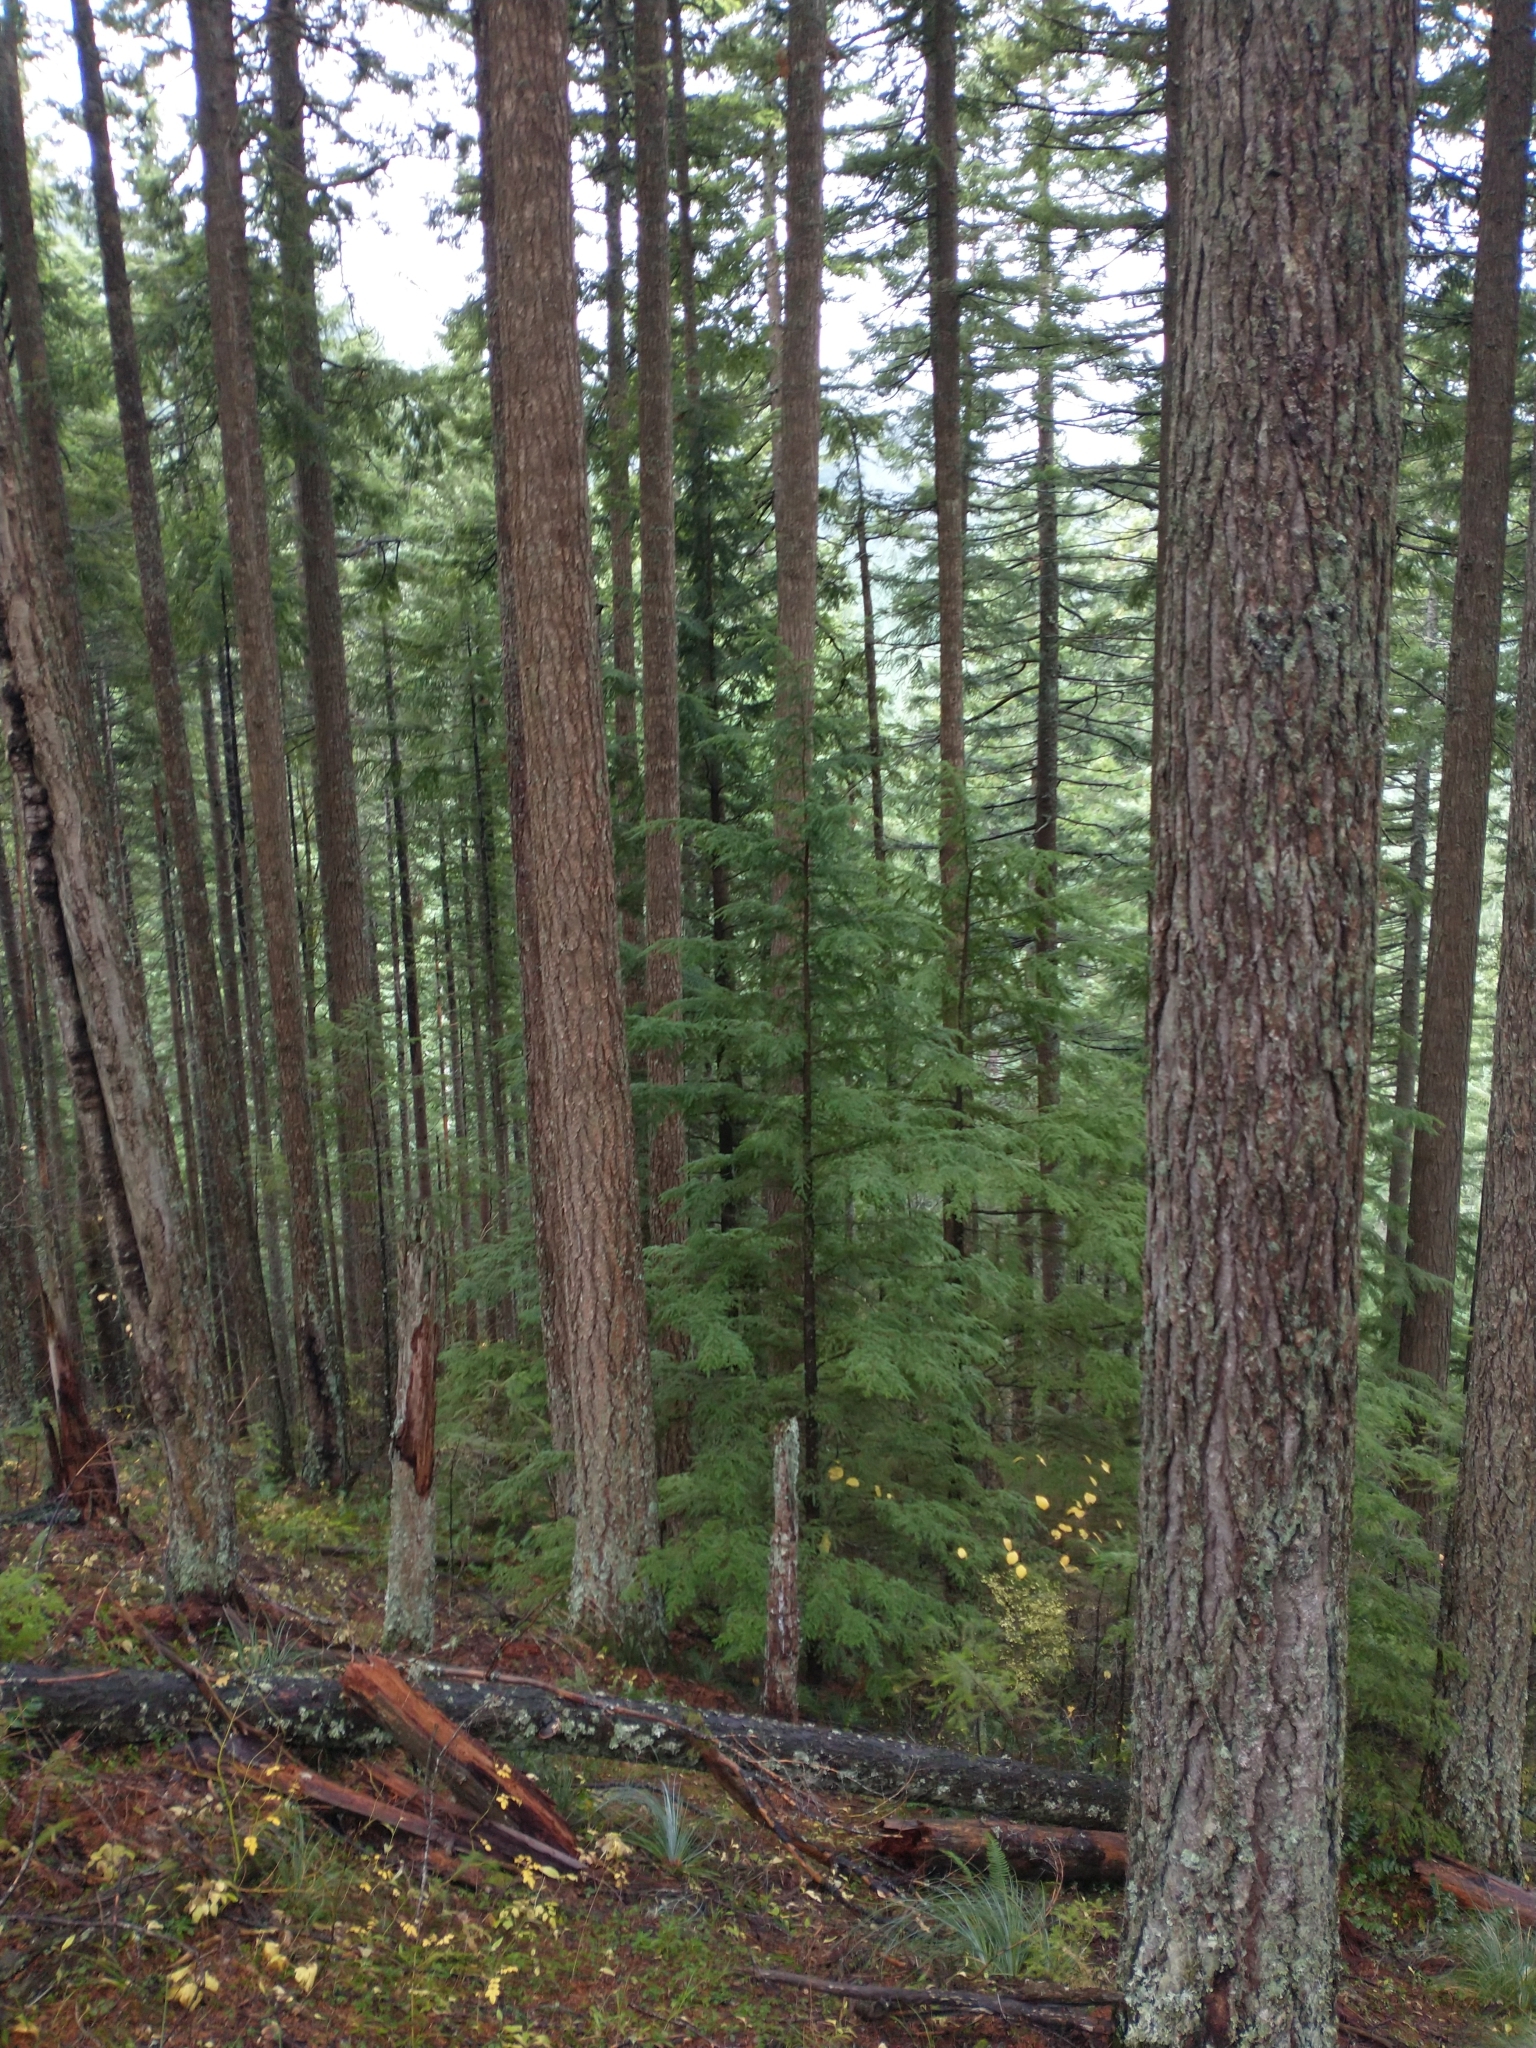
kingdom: Plantae
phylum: Tracheophyta
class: Pinopsida
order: Pinales
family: Pinaceae
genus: Pseudotsuga
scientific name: Pseudotsuga menziesii
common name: Douglas fir
